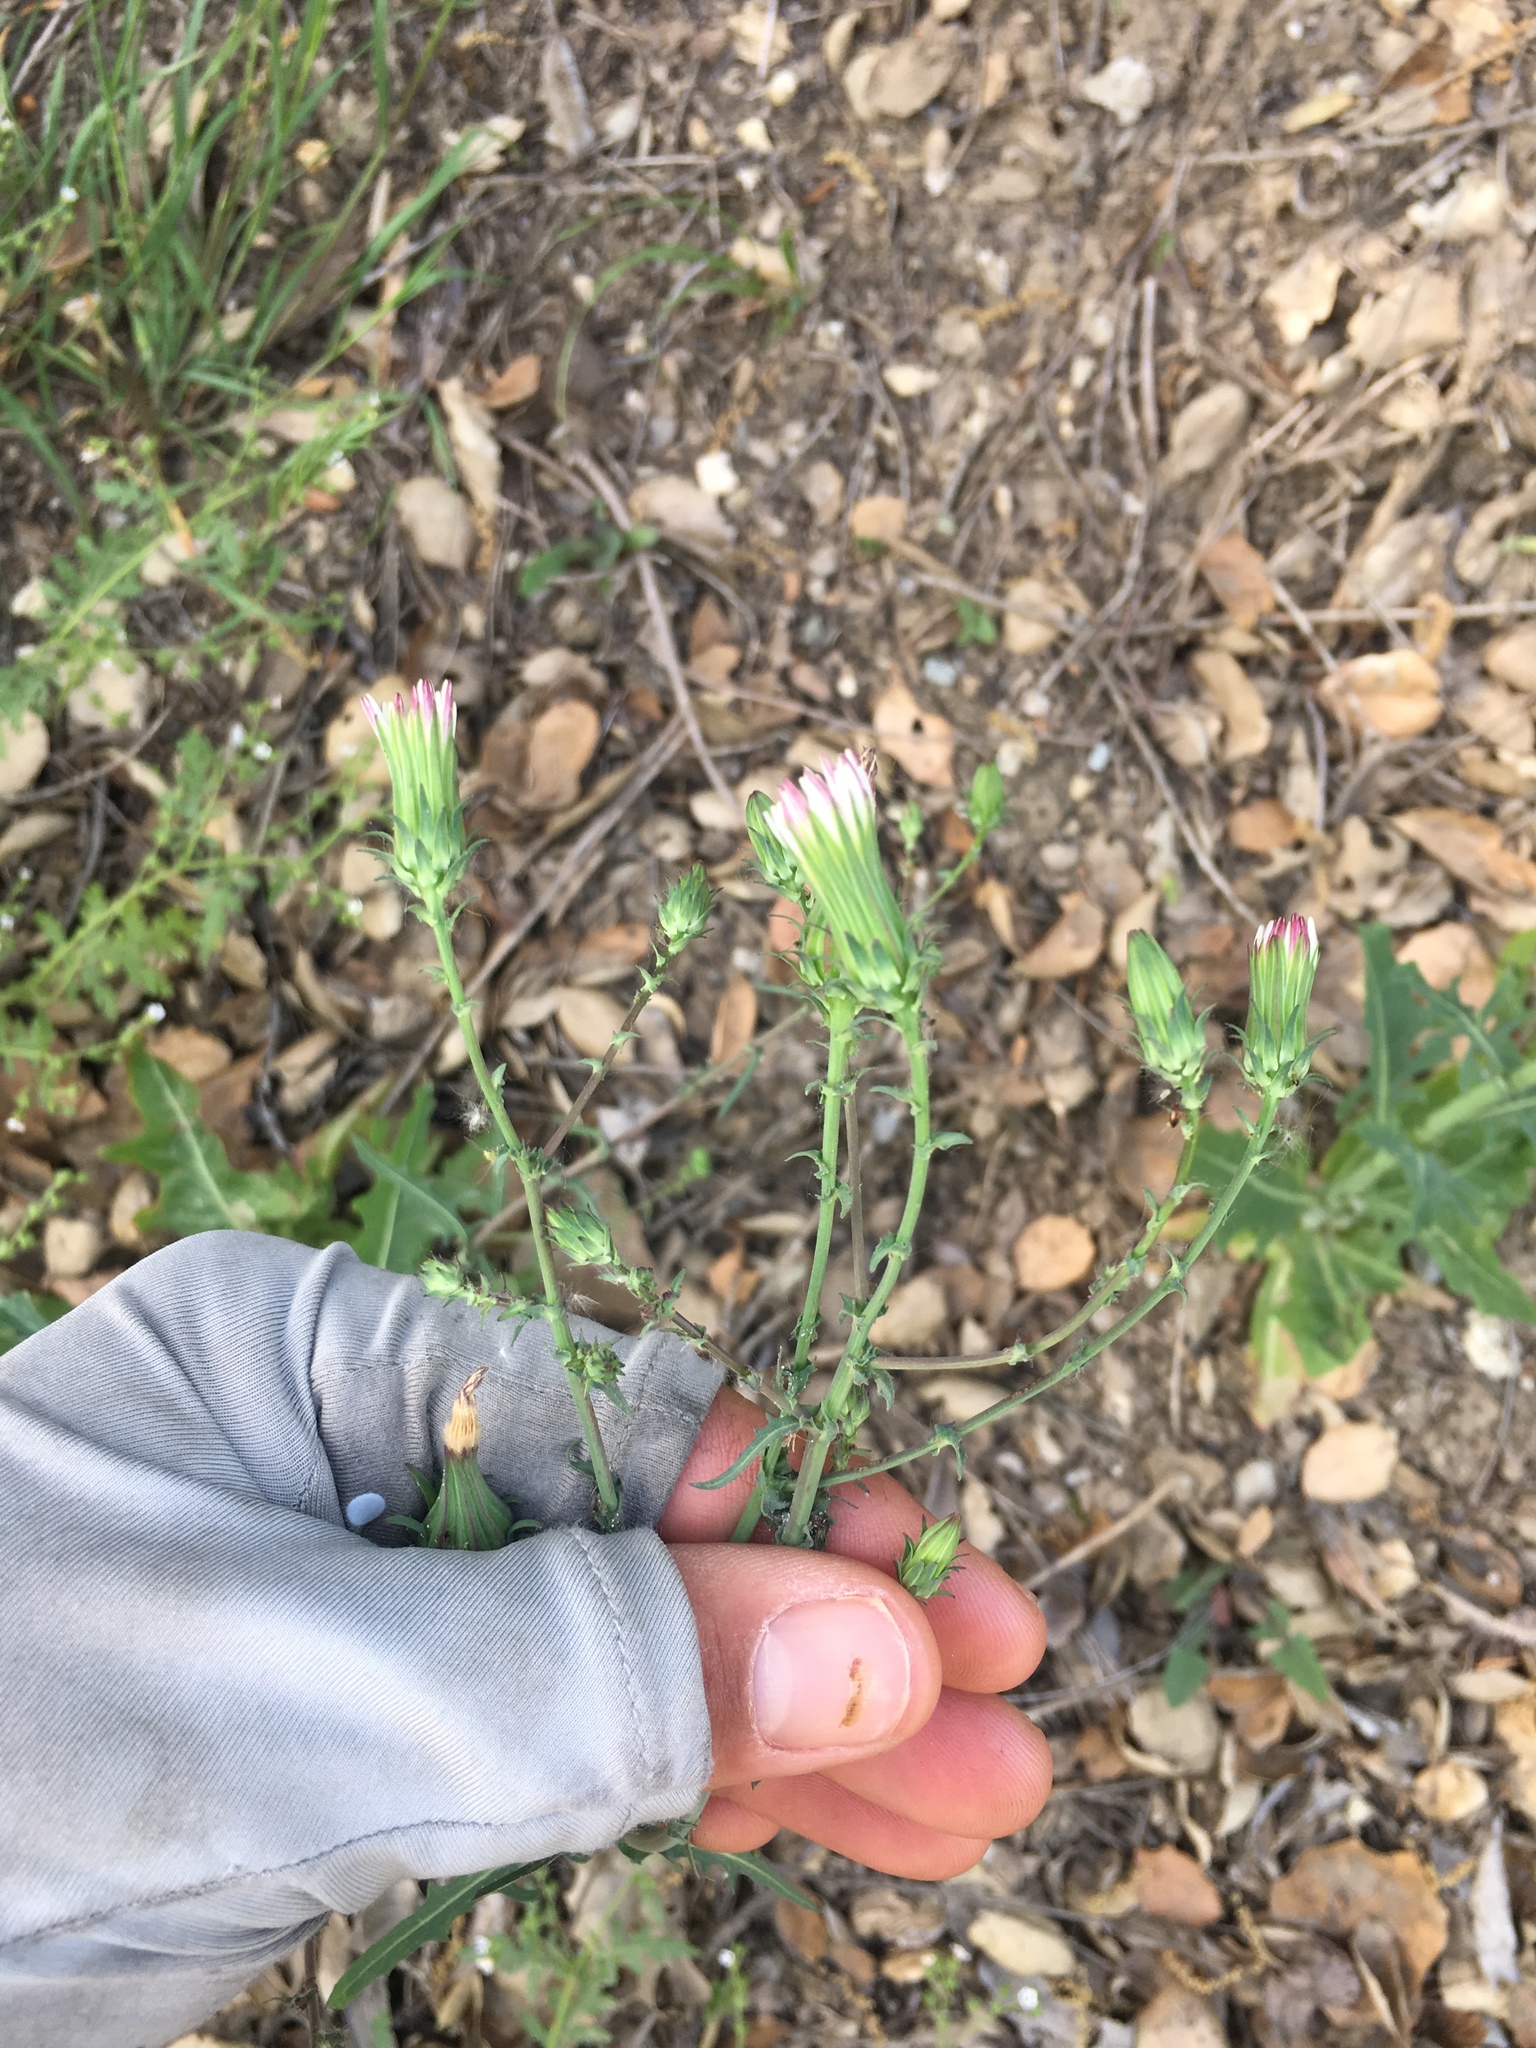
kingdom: Plantae
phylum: Tracheophyta
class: Magnoliopsida
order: Asterales
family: Asteraceae
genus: Rafinesquia
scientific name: Rafinesquia californica
